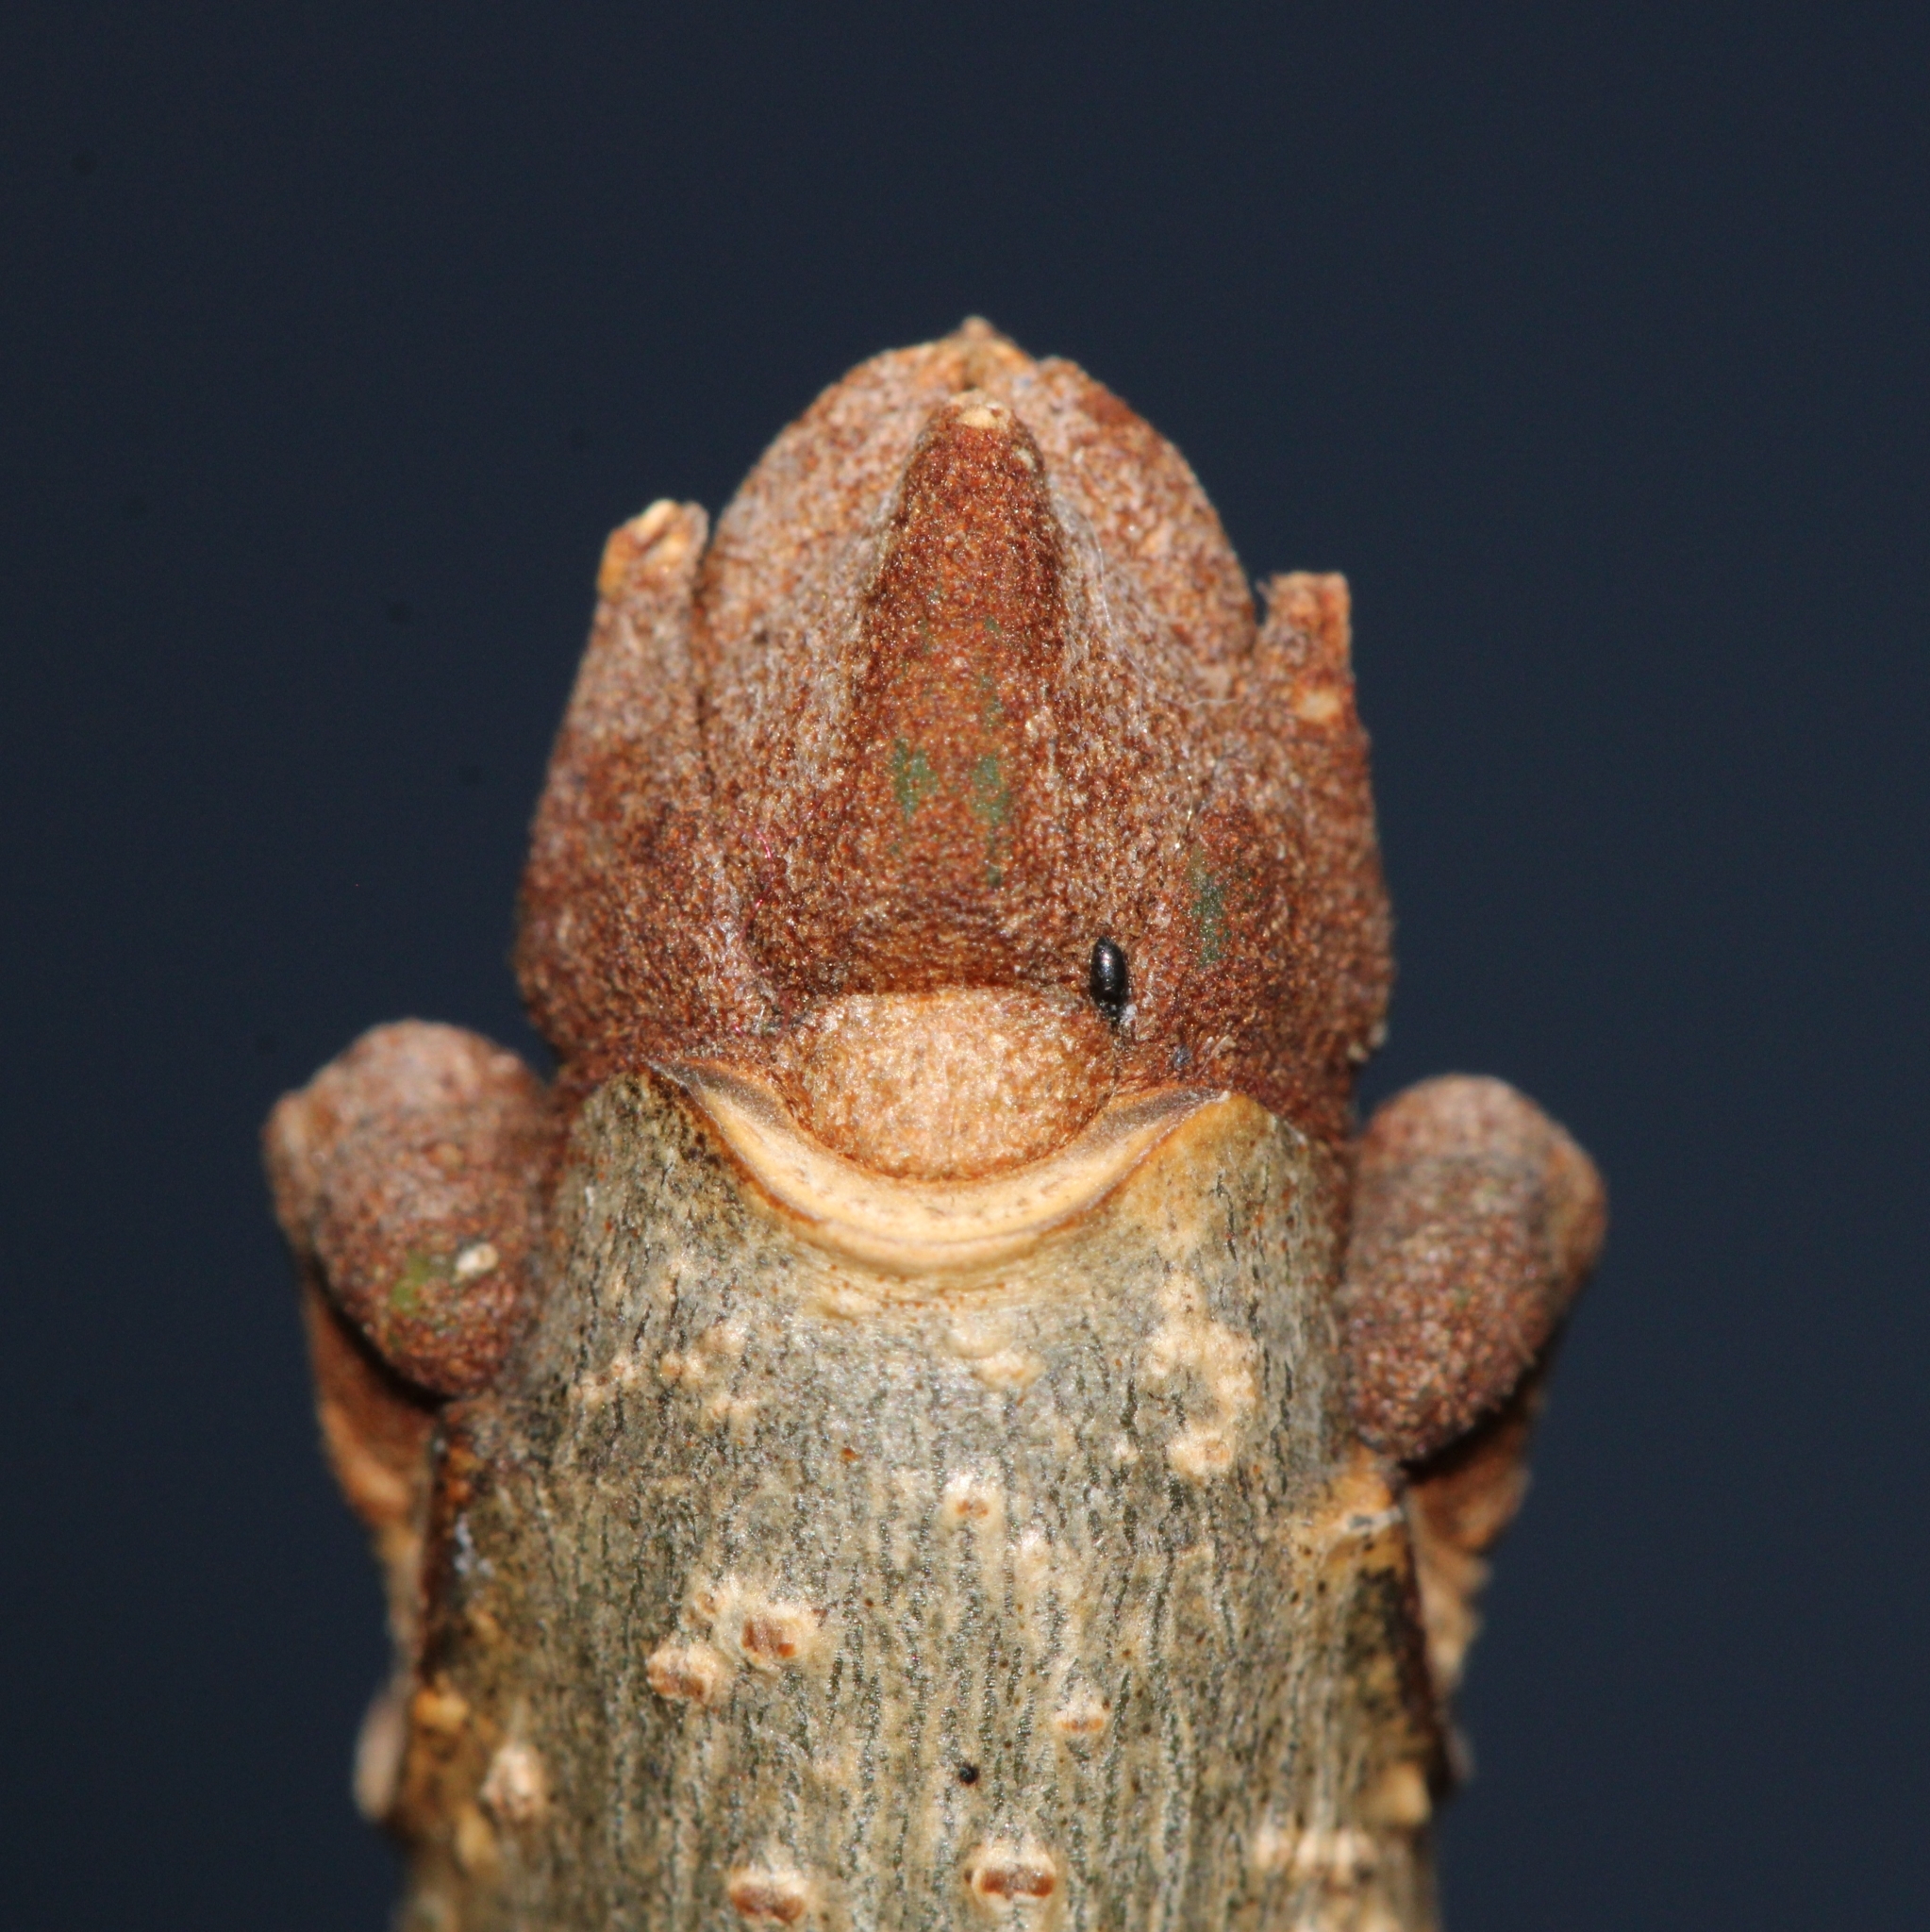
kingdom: Plantae
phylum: Tracheophyta
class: Magnoliopsida
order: Lamiales
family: Oleaceae
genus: Fraxinus
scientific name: Fraxinus americana
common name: White ash
